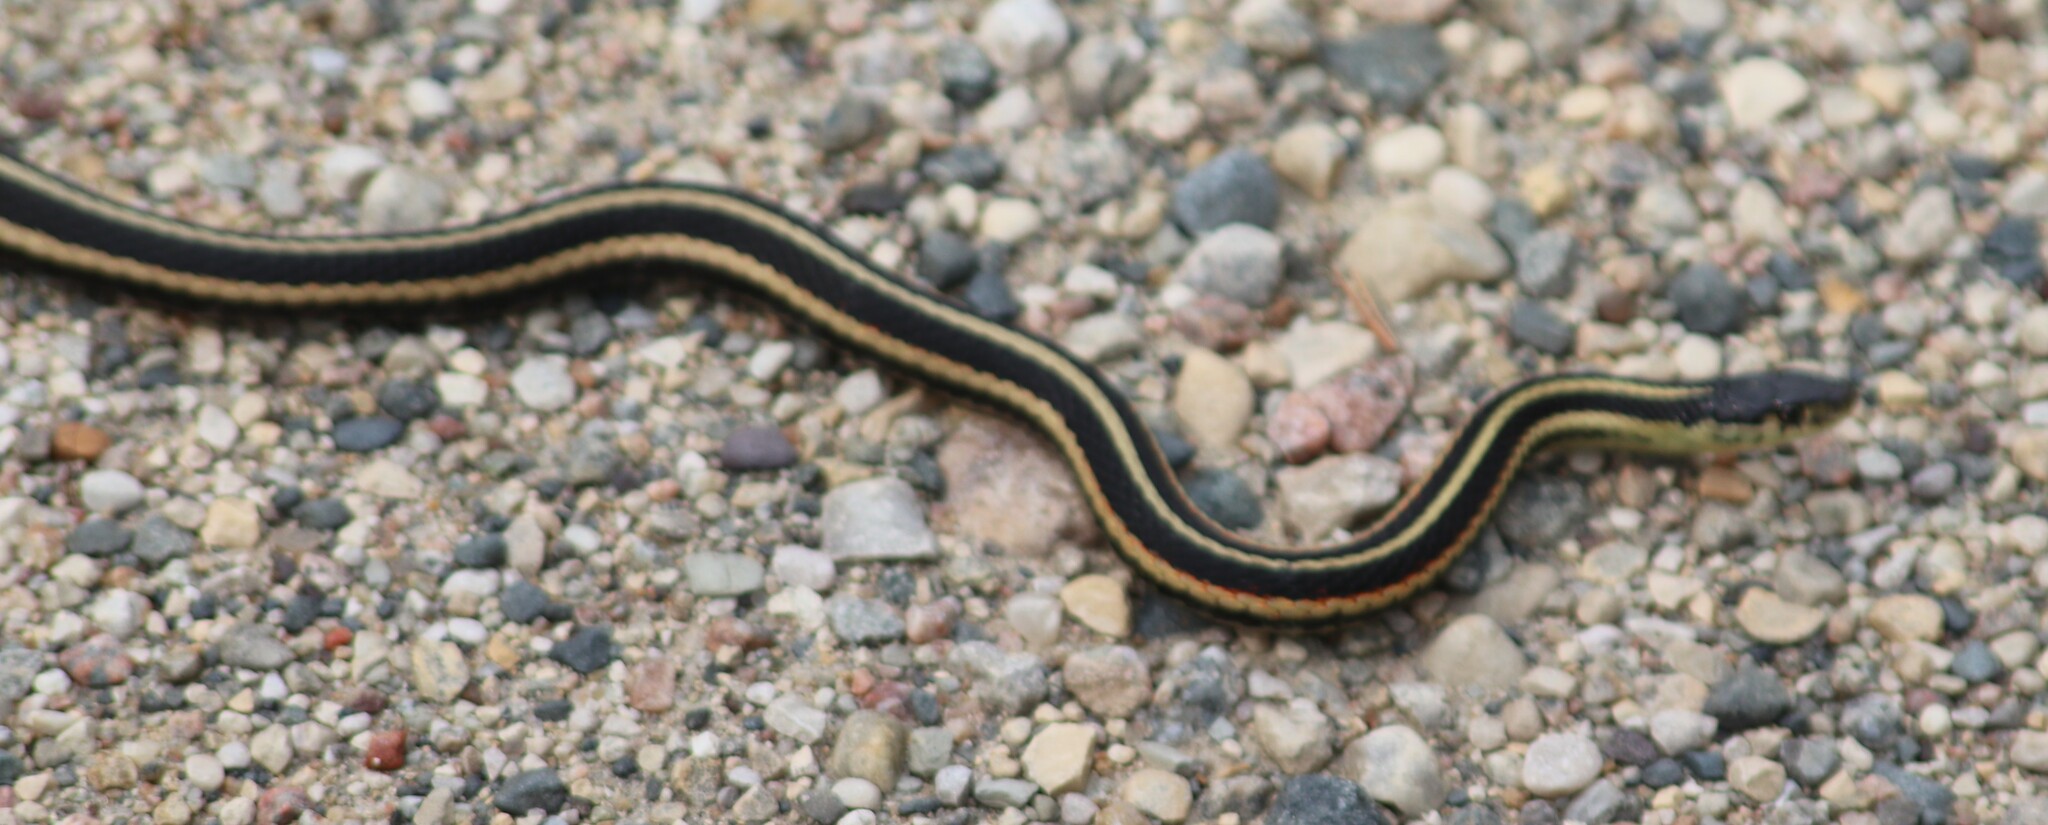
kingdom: Animalia
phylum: Chordata
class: Squamata
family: Colubridae
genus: Thamnophis
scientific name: Thamnophis sirtalis
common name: Common garter snake
